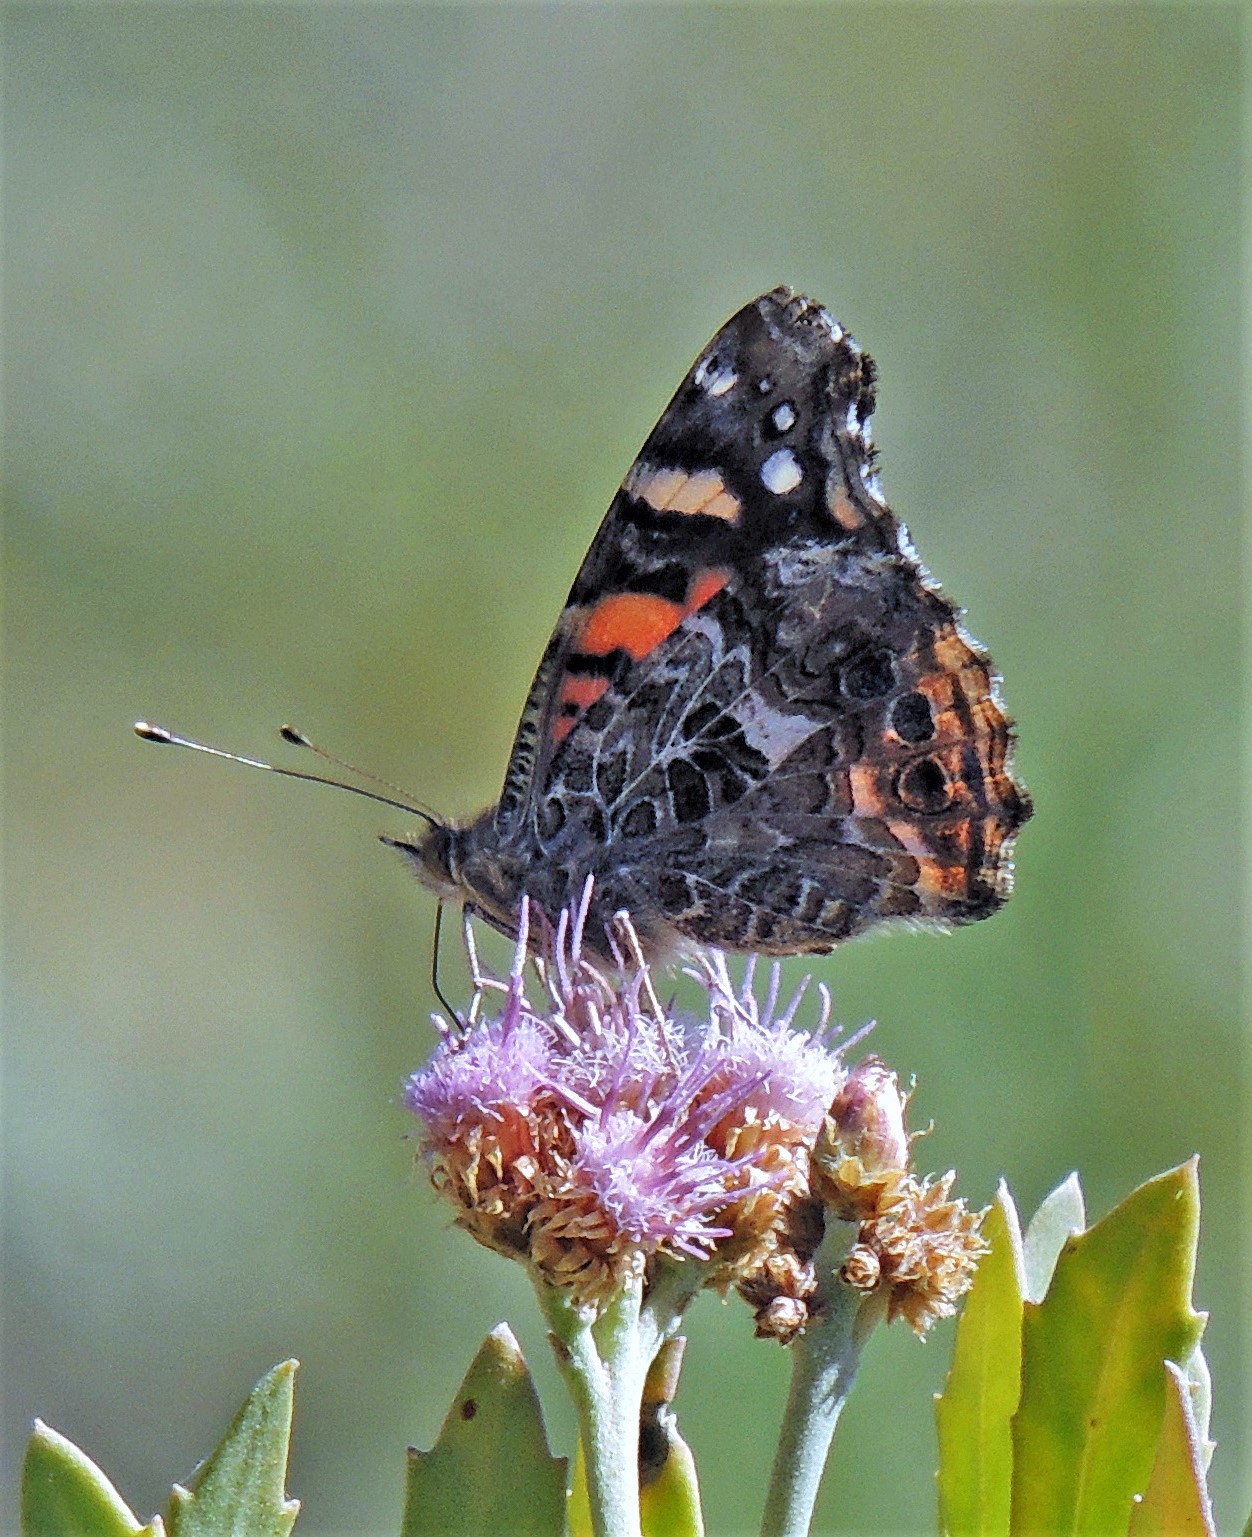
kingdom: Animalia
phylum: Arthropoda
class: Insecta
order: Lepidoptera
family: Nymphalidae
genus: Vanessa
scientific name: Vanessa carye
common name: Subtropical lady
